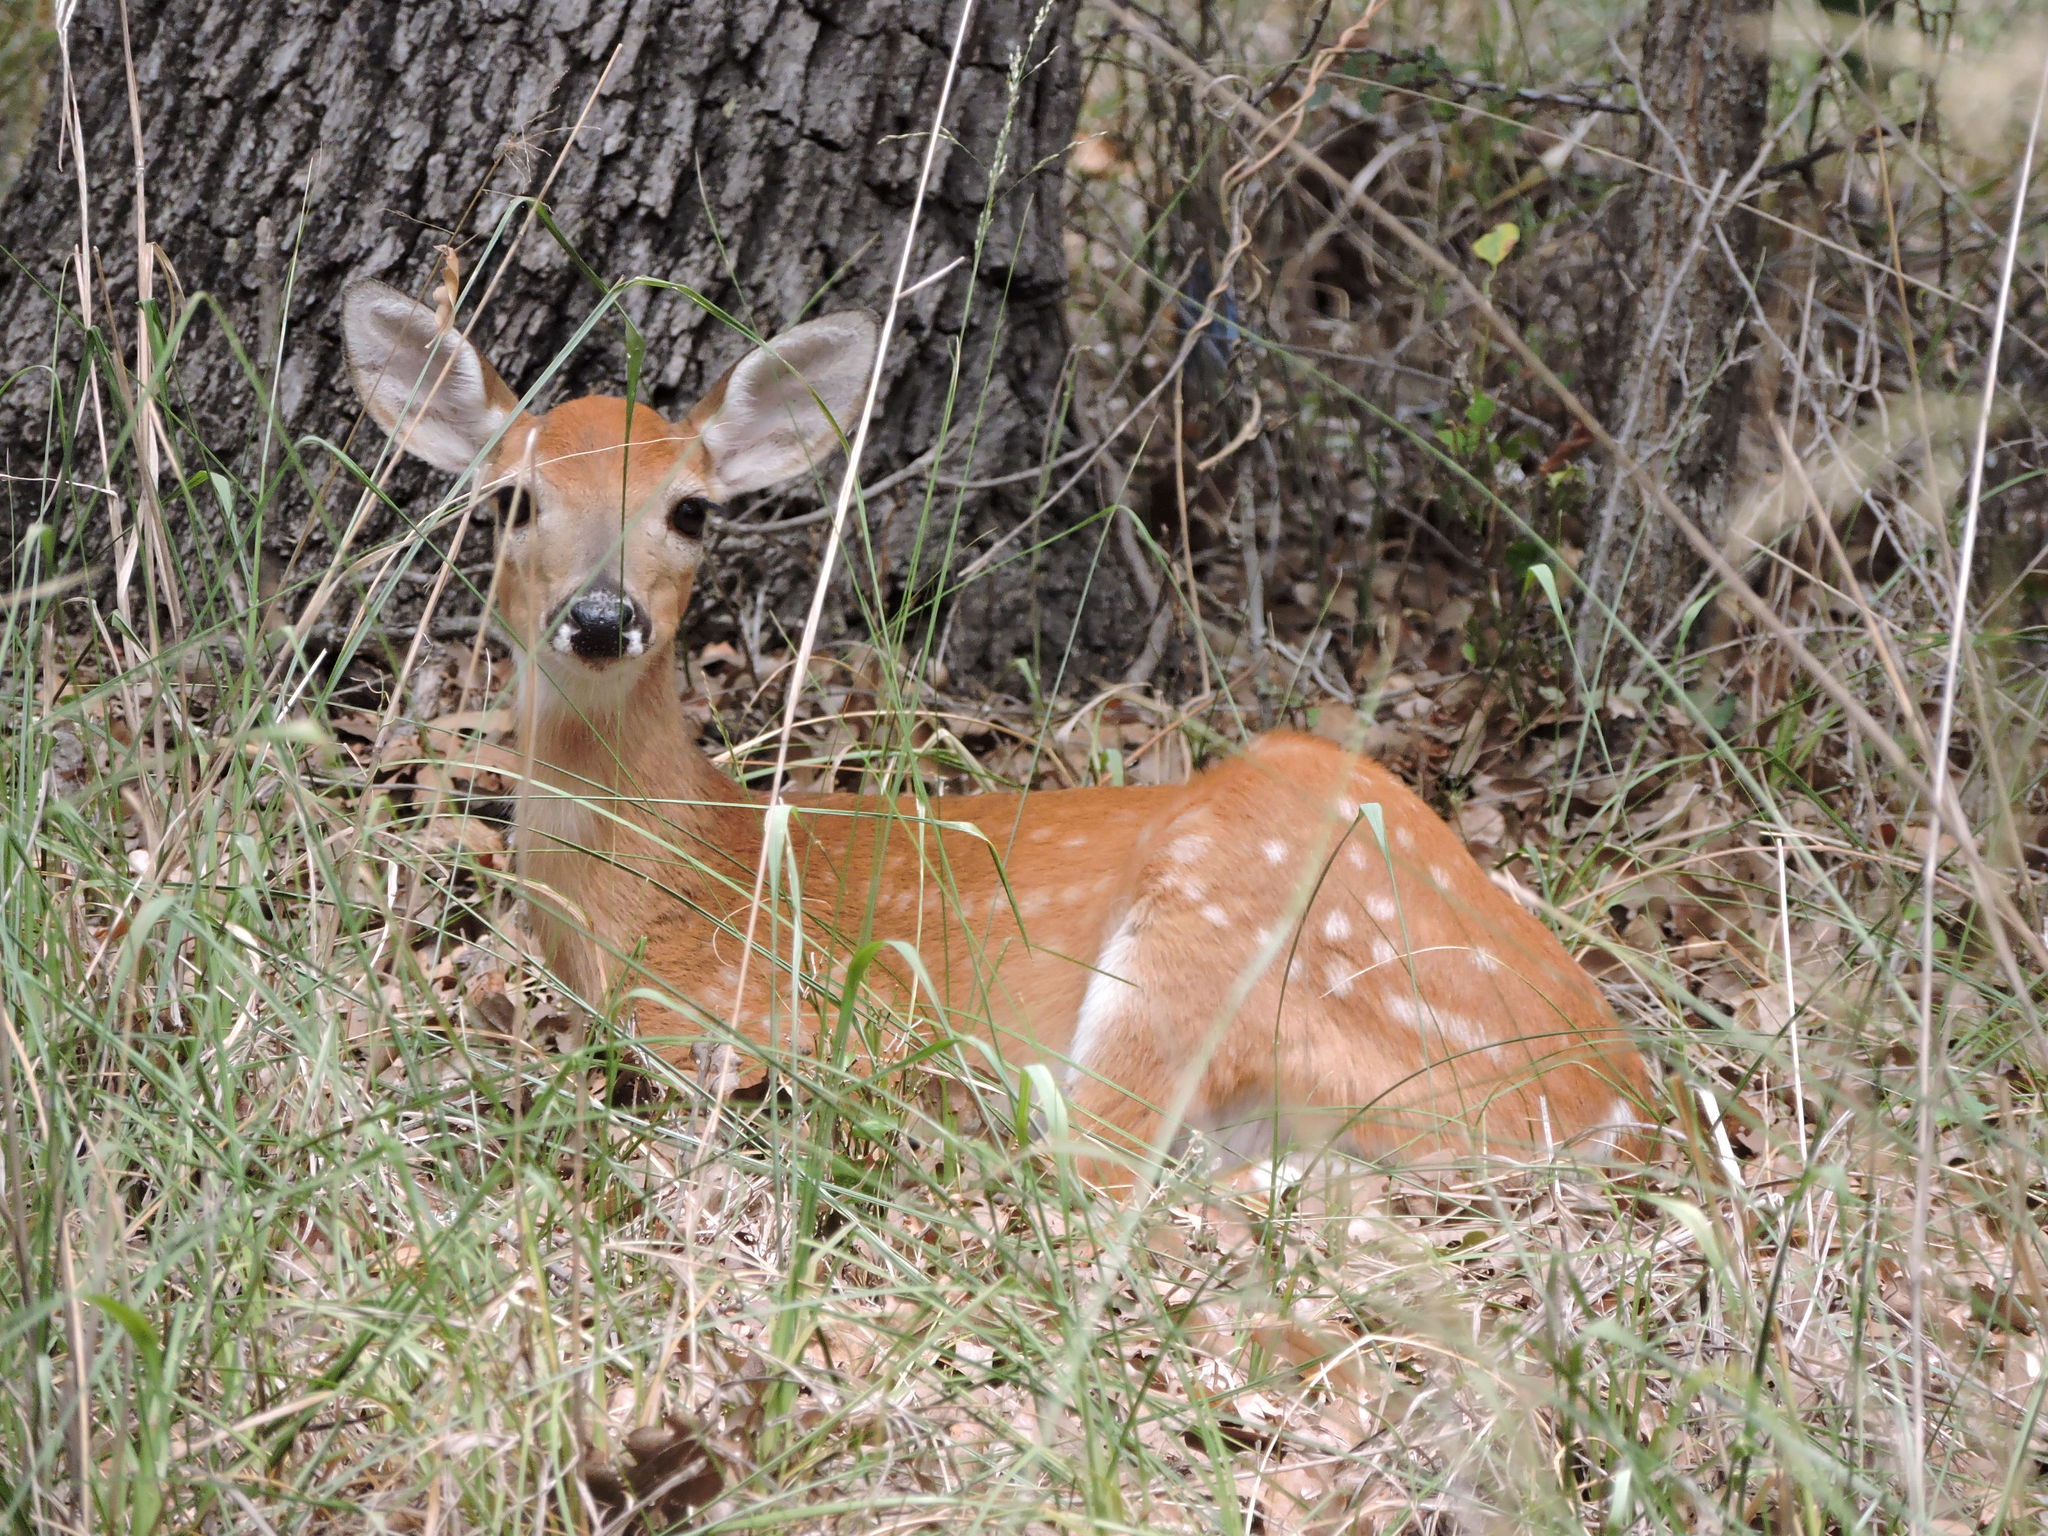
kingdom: Animalia
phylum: Chordata
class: Mammalia
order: Artiodactyla
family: Cervidae
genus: Odocoileus
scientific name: Odocoileus virginianus
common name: White-tailed deer
